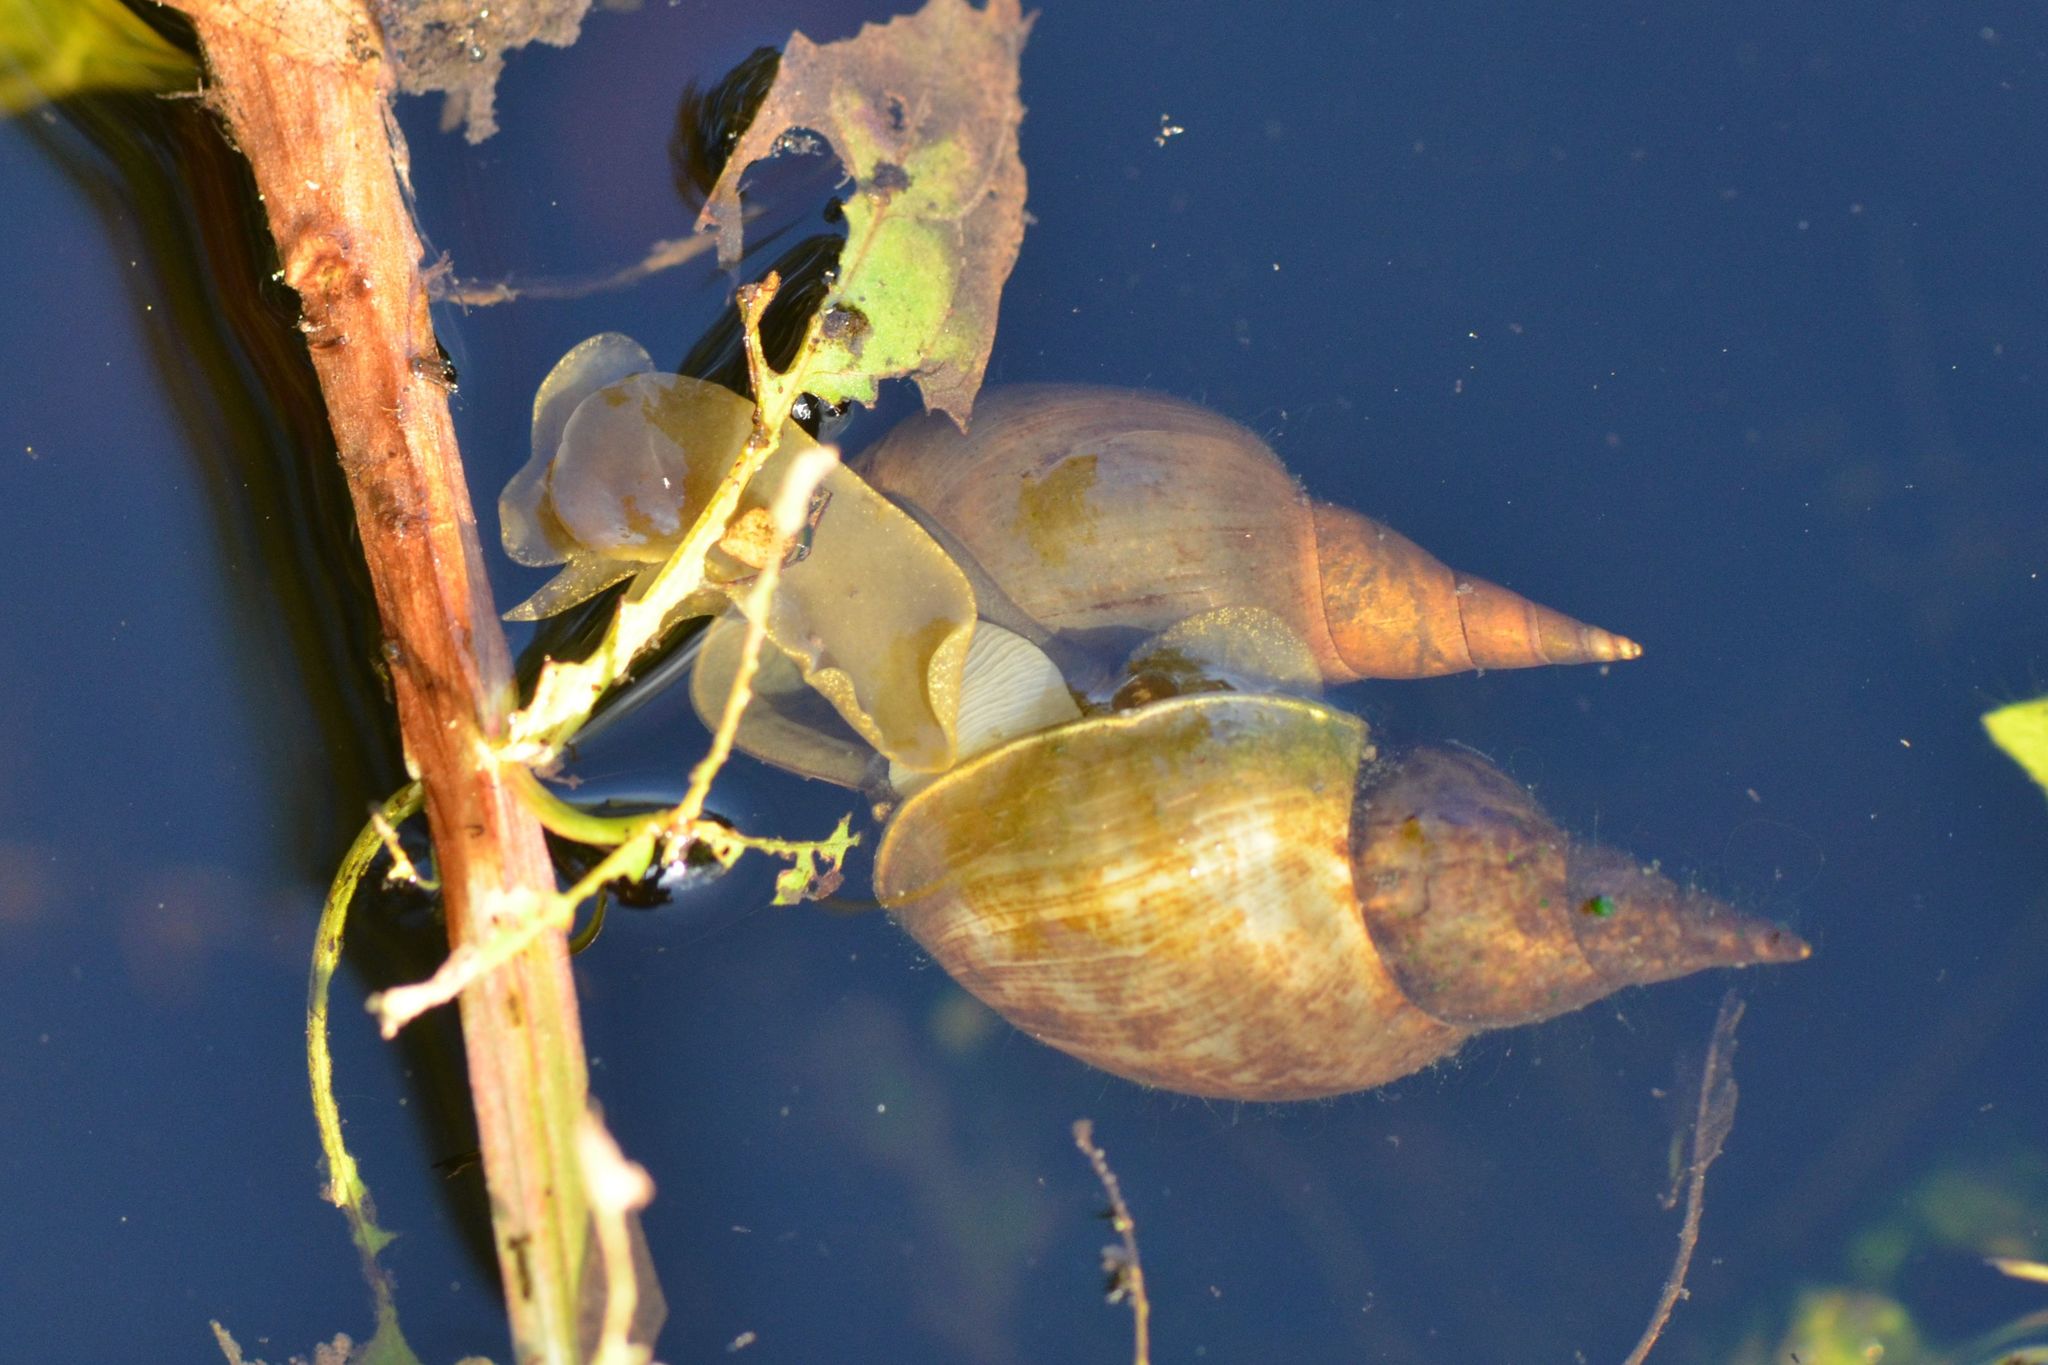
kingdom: Animalia
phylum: Mollusca
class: Gastropoda
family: Lymnaeidae
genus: Lymnaea
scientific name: Lymnaea stagnalis
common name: Great pond snail
